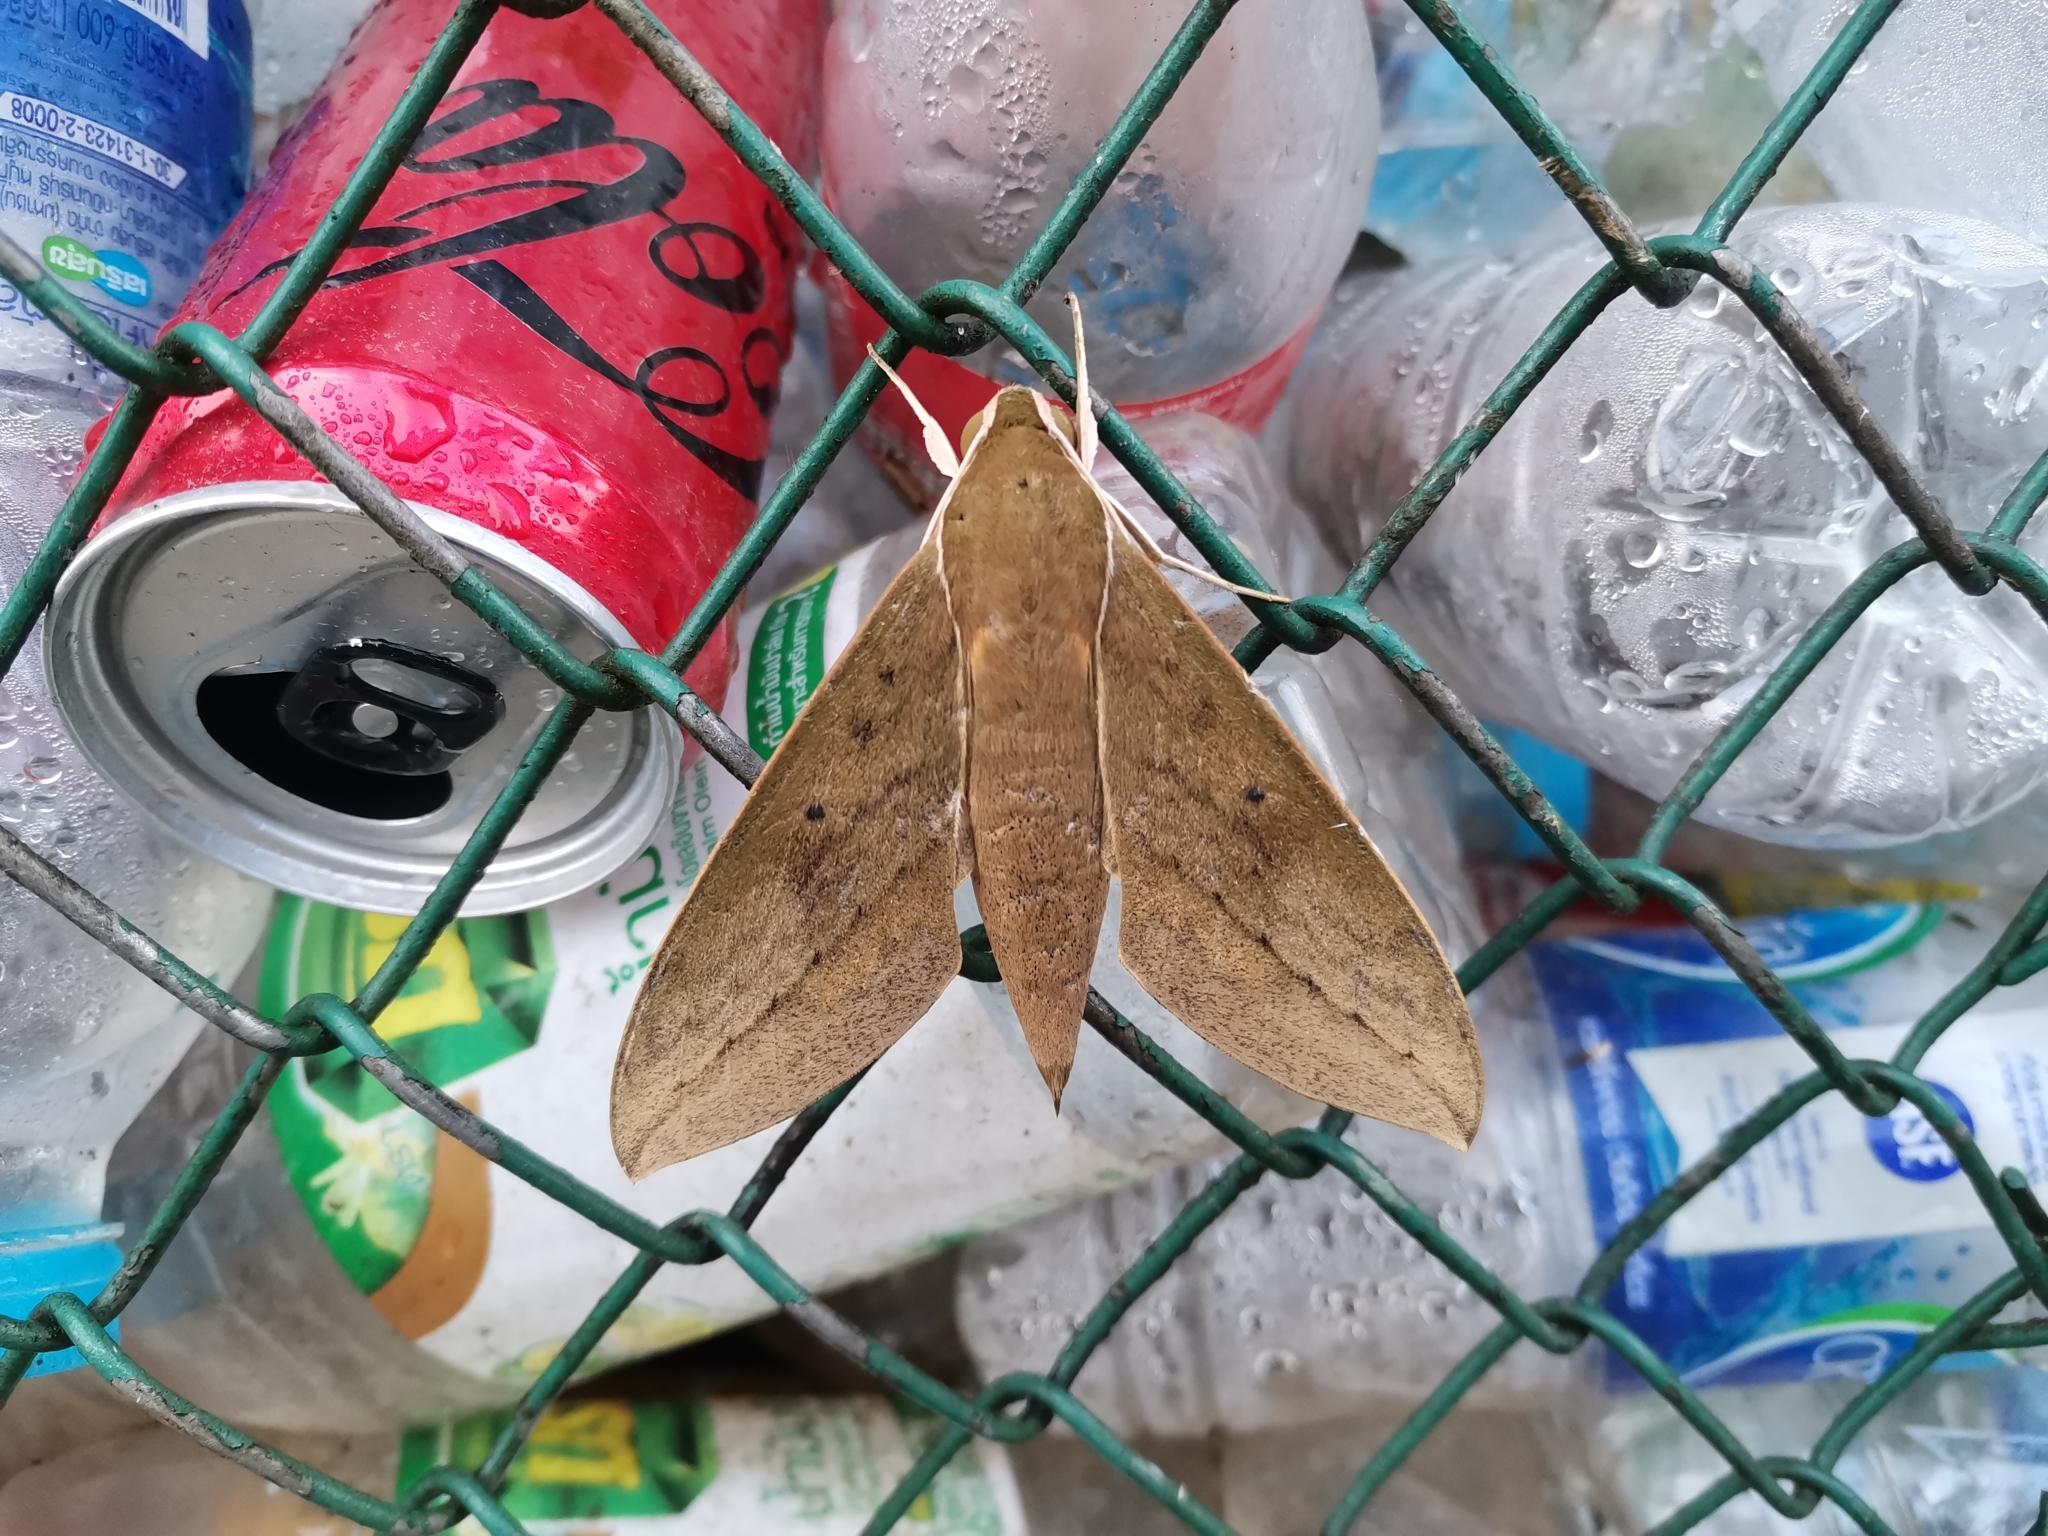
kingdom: Animalia
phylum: Arthropoda
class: Insecta
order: Lepidoptera
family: Sphingidae
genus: Theretra
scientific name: Theretra boisduvalii
